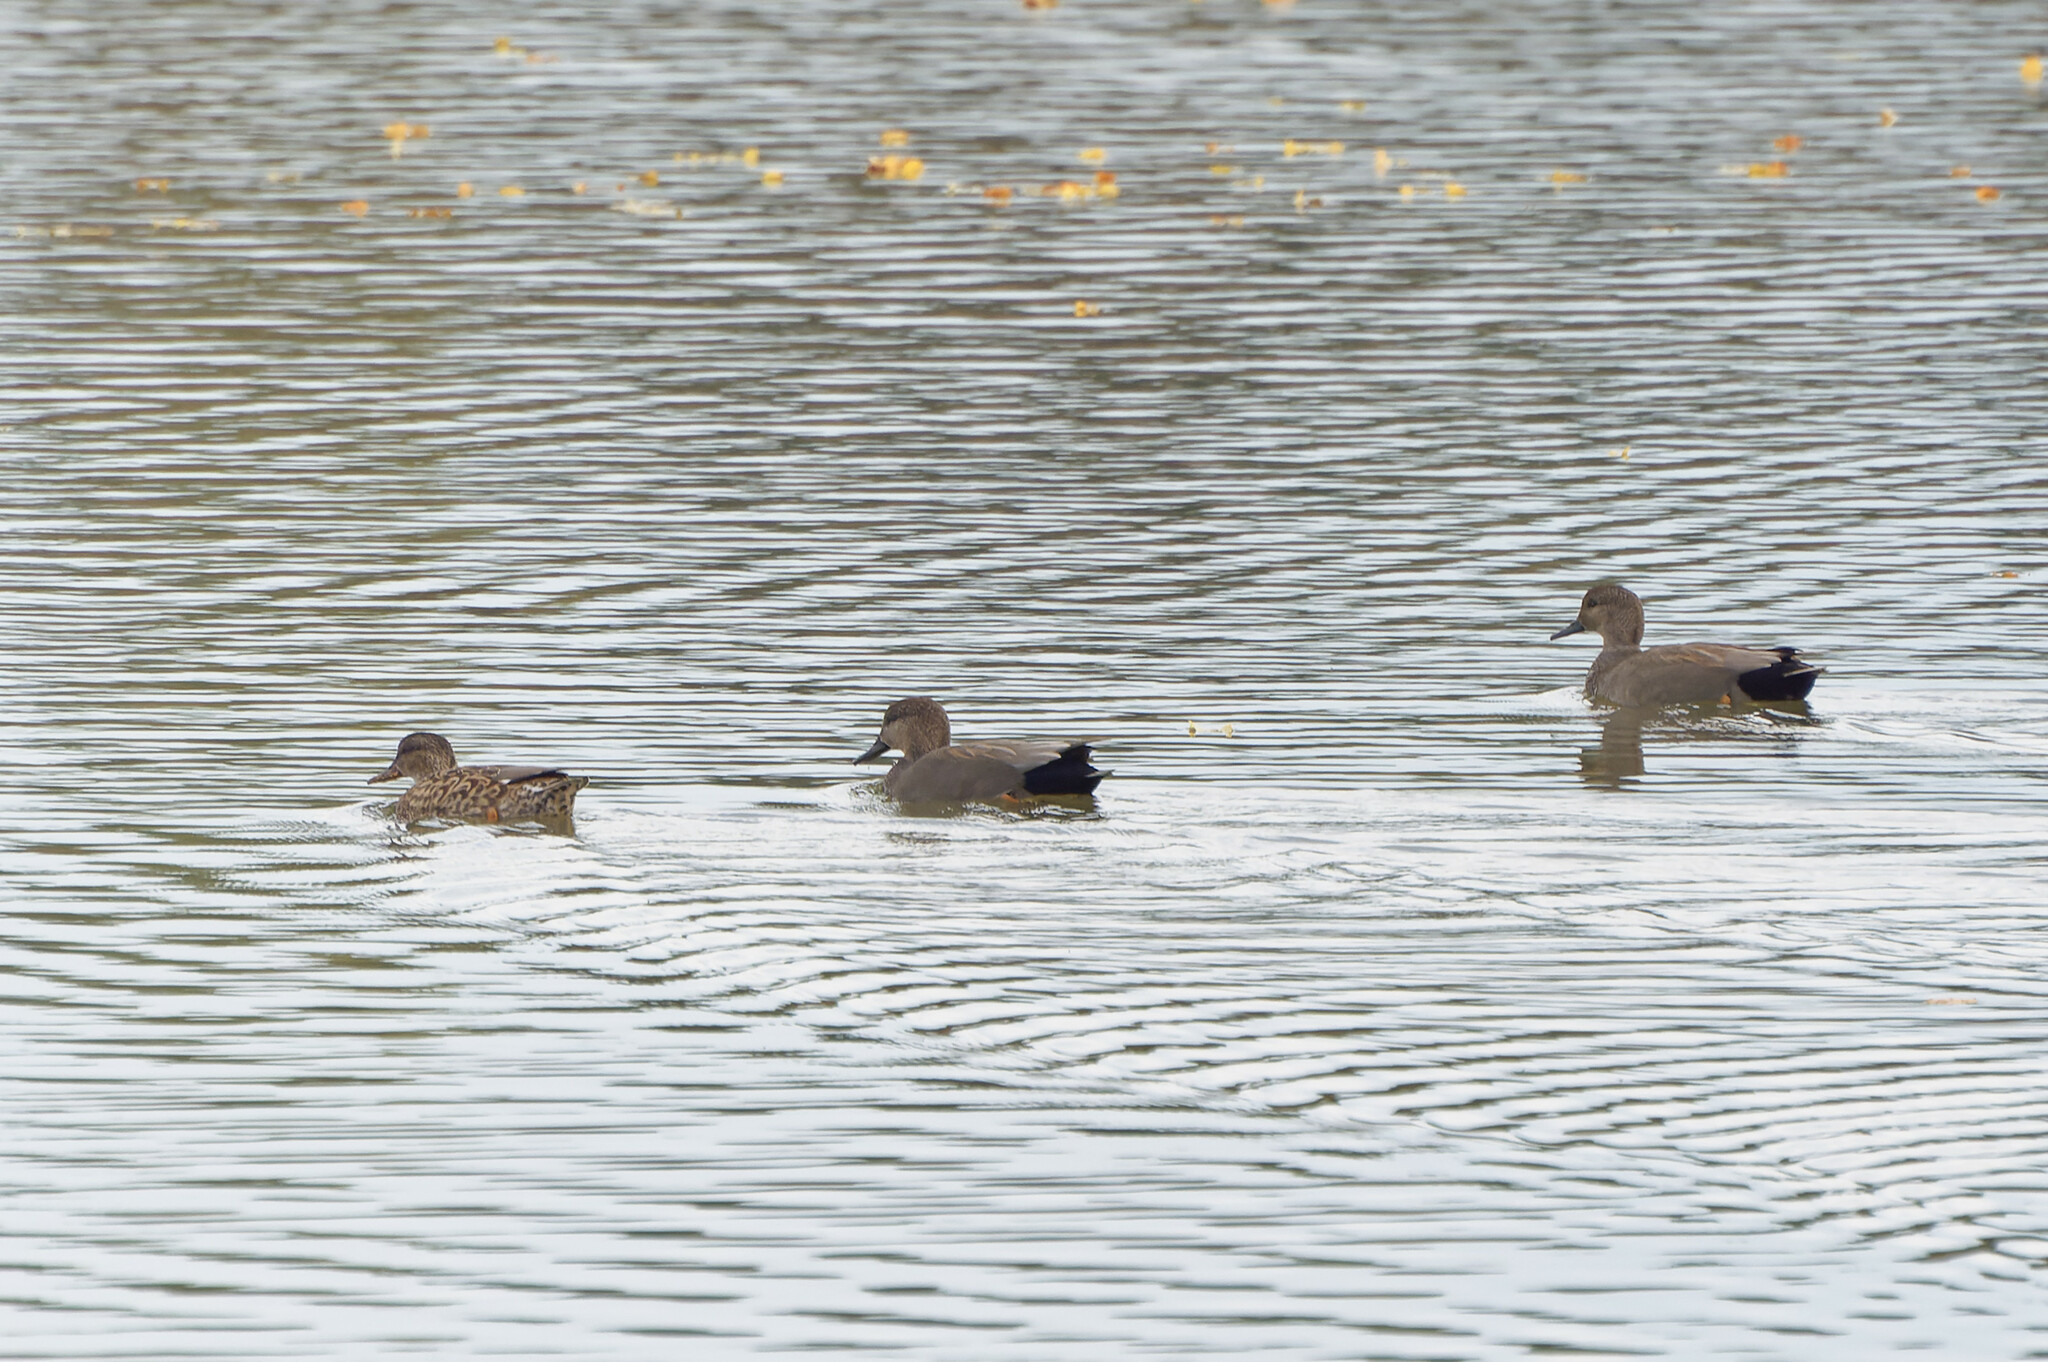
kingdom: Animalia
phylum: Chordata
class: Aves
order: Anseriformes
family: Anatidae
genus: Mareca
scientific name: Mareca strepera
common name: Gadwall
